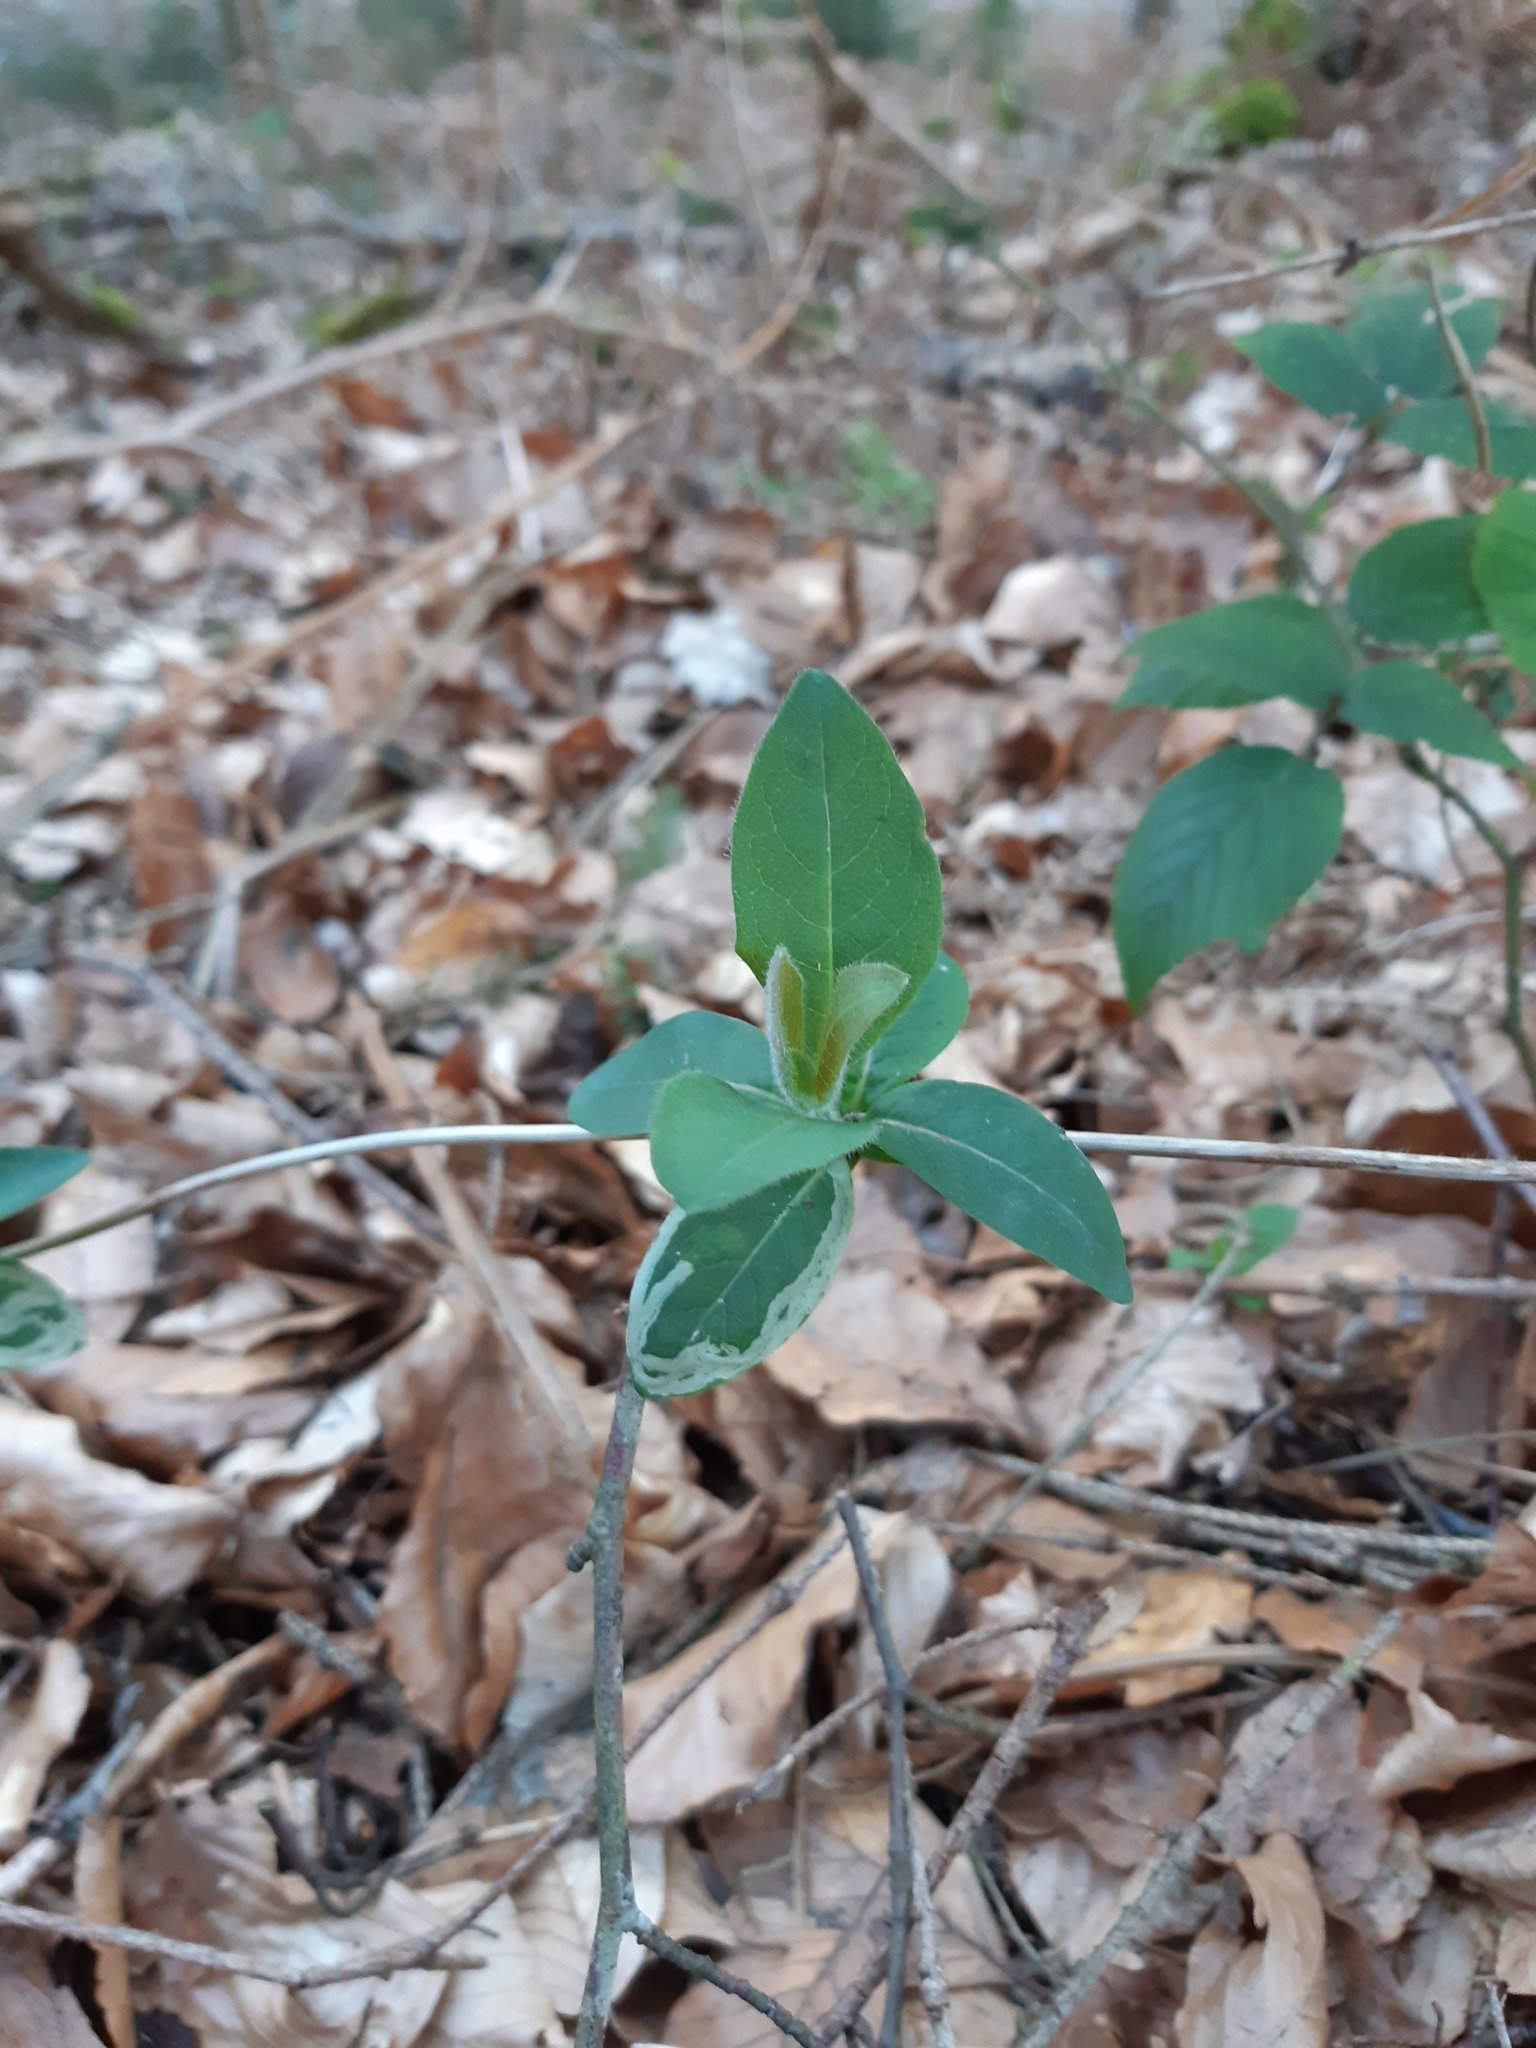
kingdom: Plantae
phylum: Tracheophyta
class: Magnoliopsida
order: Dipsacales
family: Caprifoliaceae
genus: Lonicera
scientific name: Lonicera periclymenum
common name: European honeysuckle
